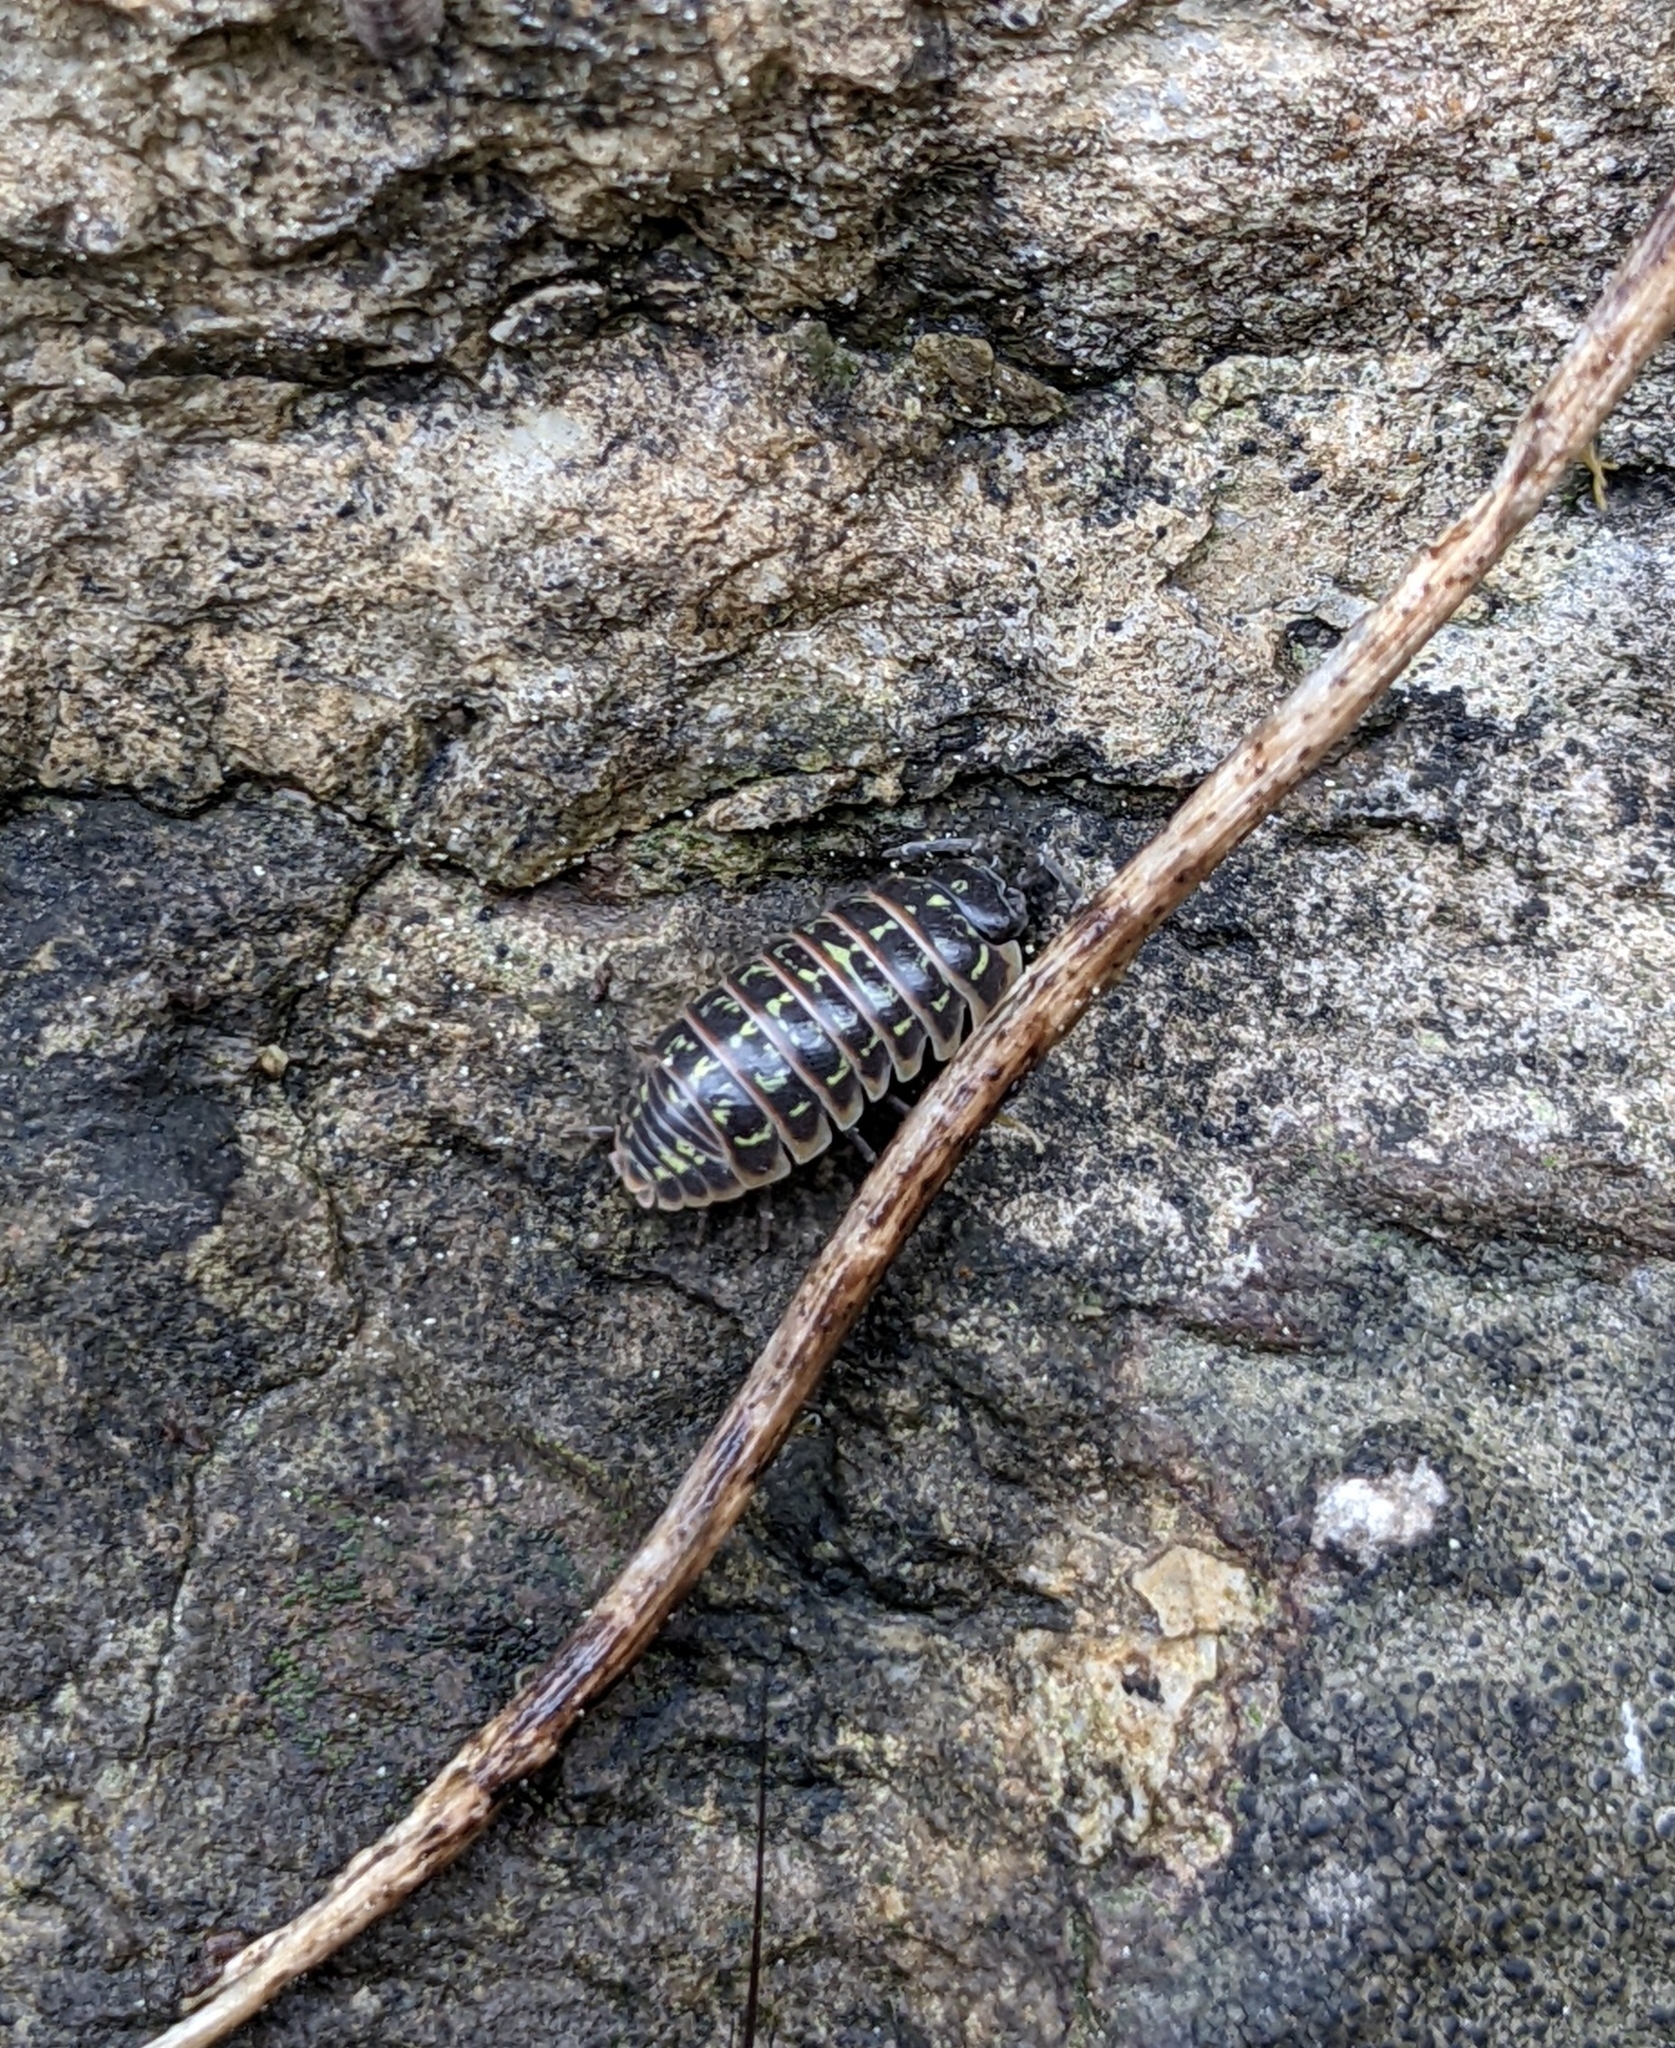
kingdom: Animalia
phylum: Arthropoda
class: Malacostraca
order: Isopoda
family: Armadillidiidae
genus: Armadillidium
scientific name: Armadillidium versicolor
